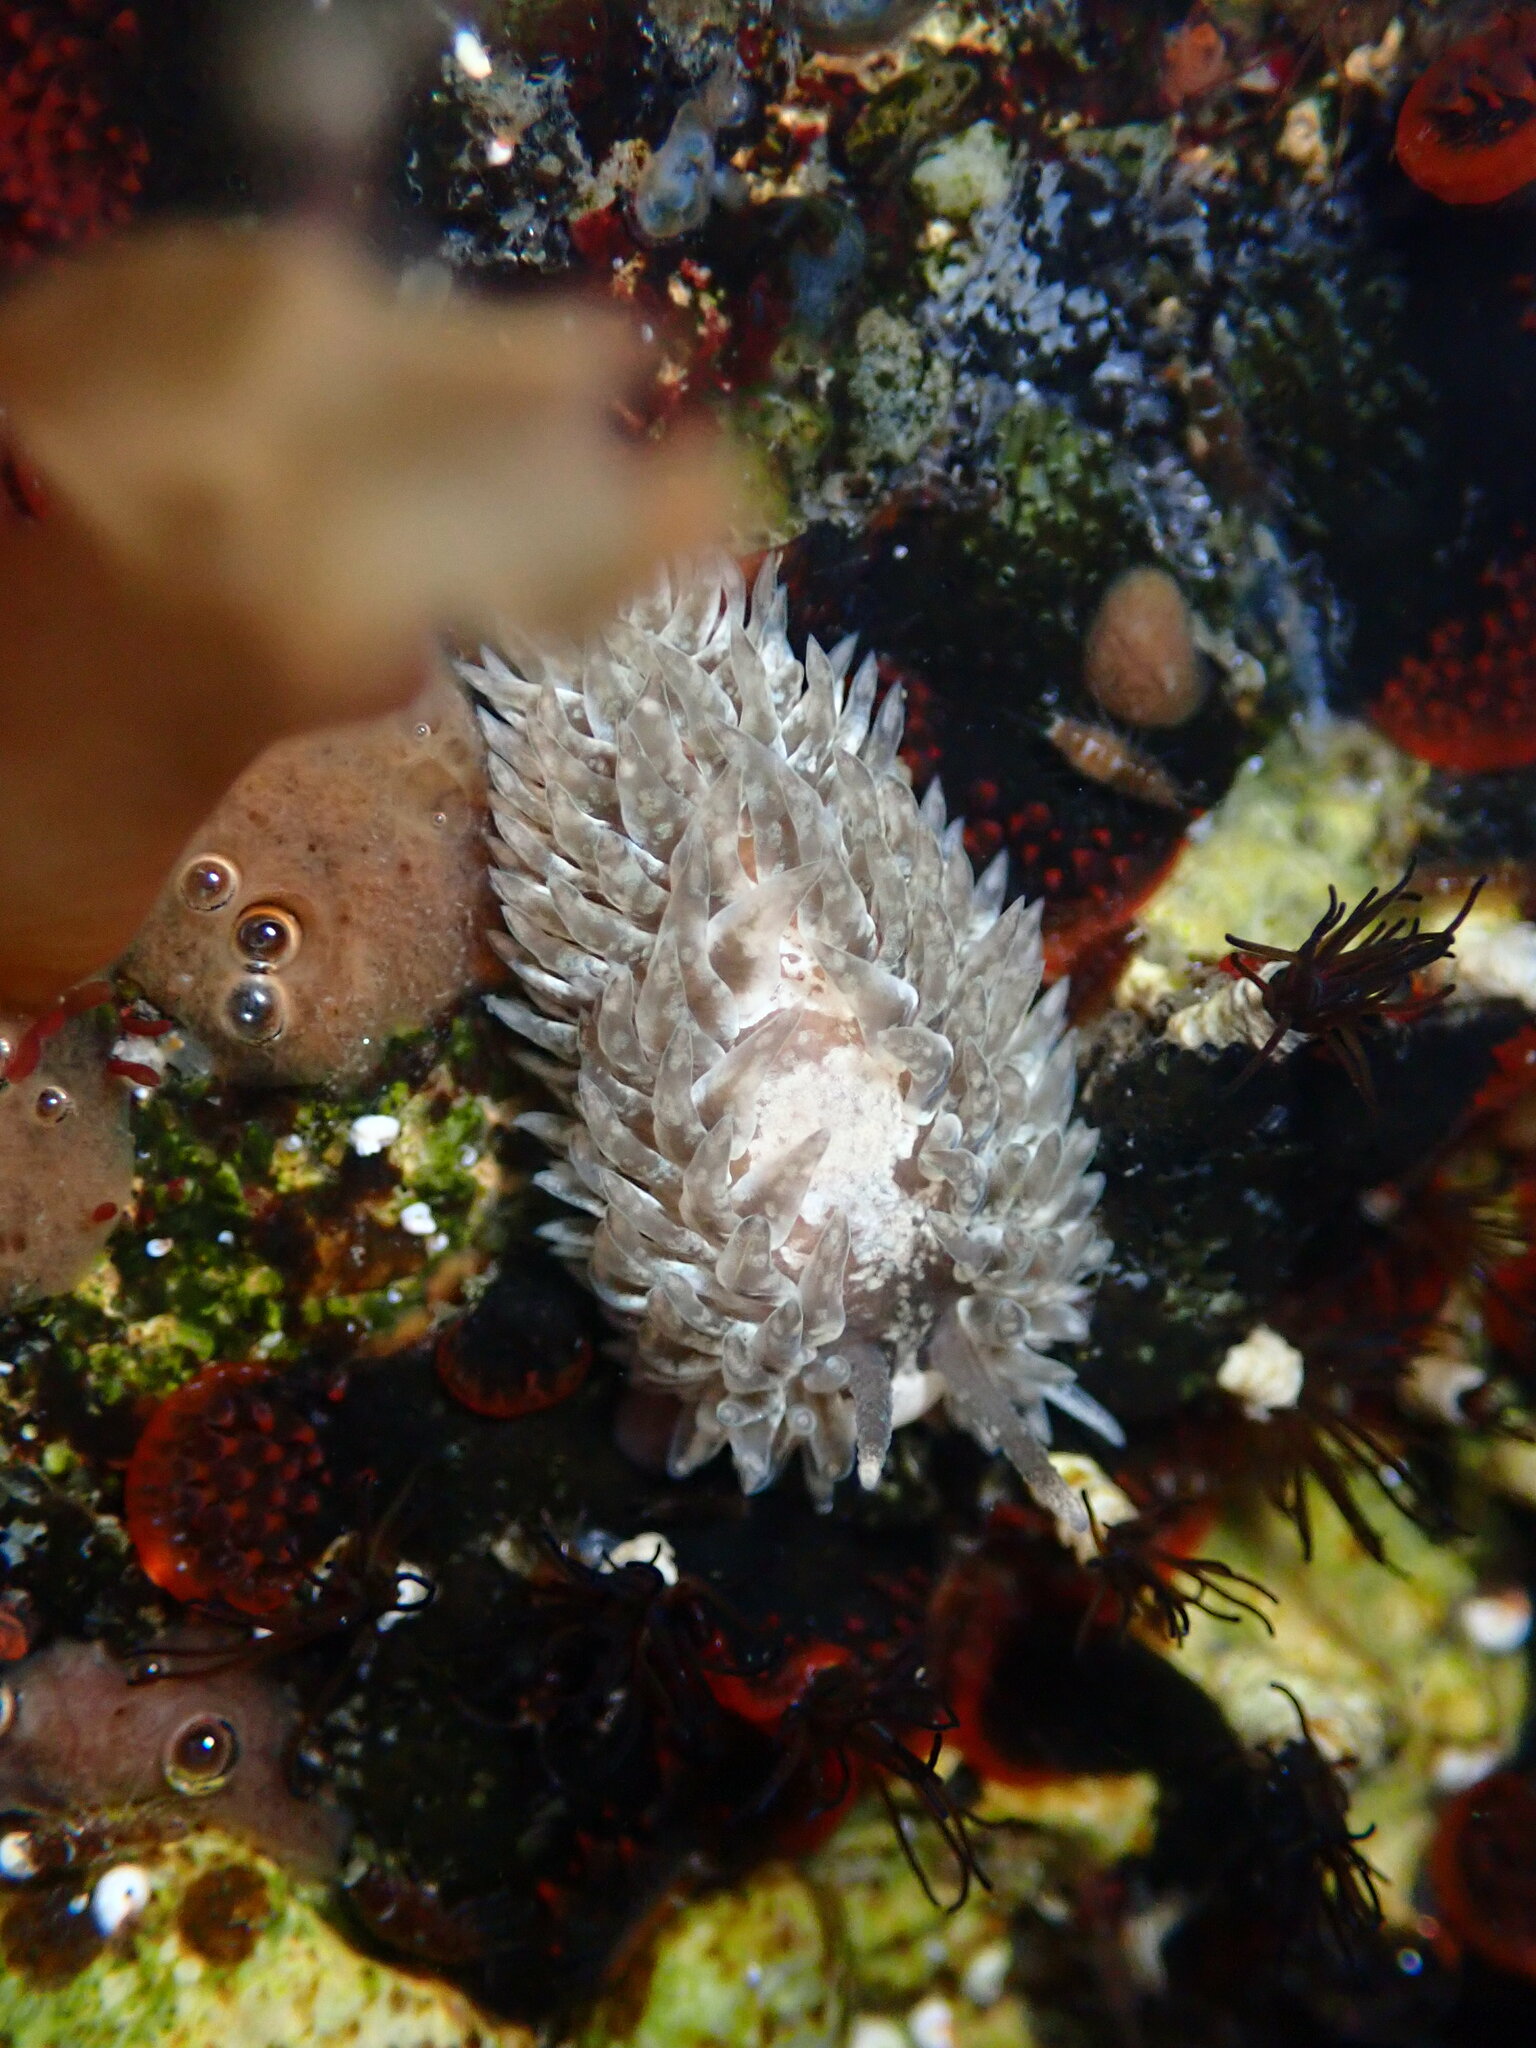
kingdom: Animalia
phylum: Mollusca
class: Gastropoda
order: Nudibranchia
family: Aeolidiidae
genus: Aeolidia
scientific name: Aeolidia loui
